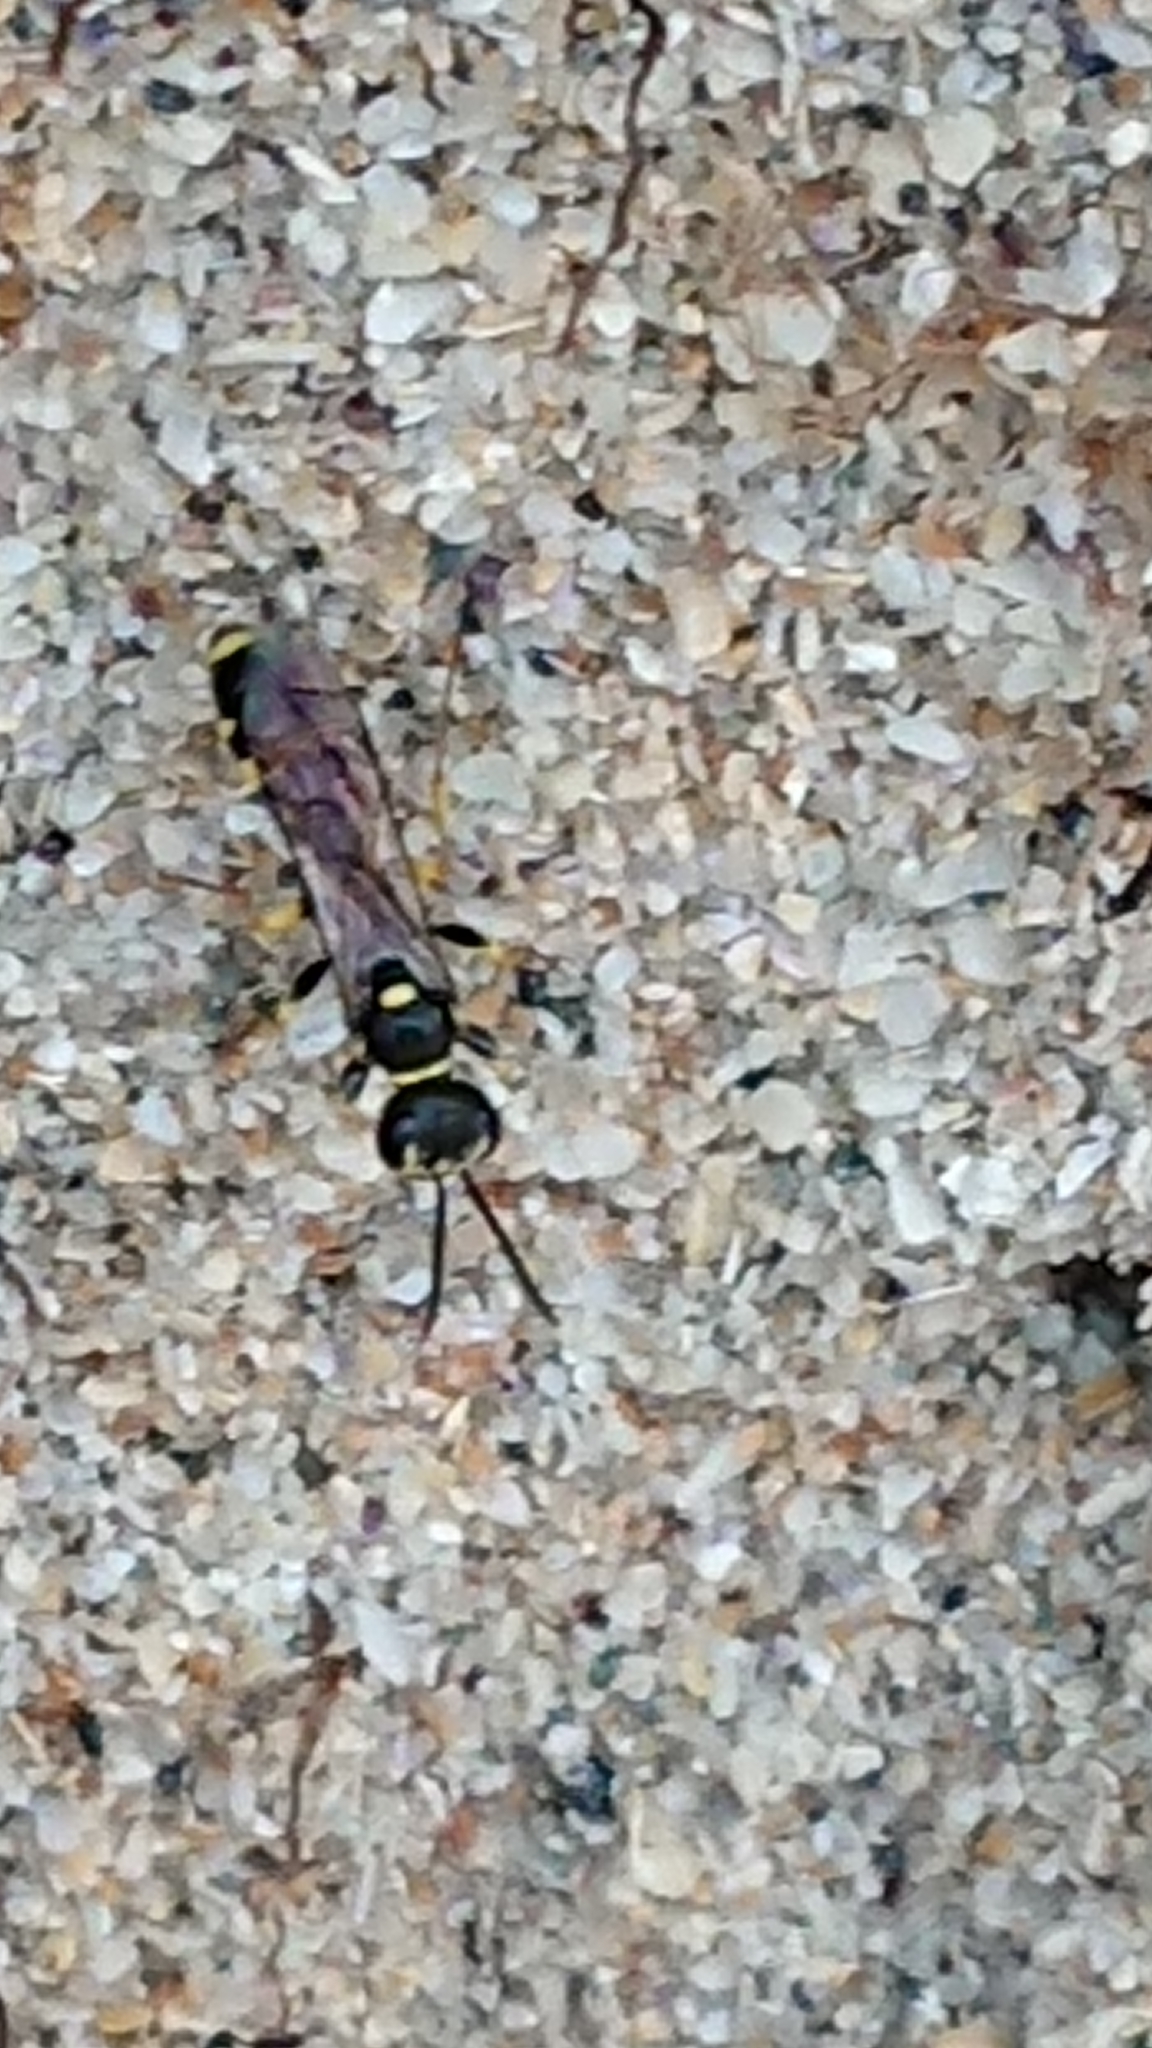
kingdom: Animalia
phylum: Arthropoda
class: Insecta
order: Hymenoptera
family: Crabronidae
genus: Mellinus
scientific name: Mellinus arvensis
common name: Field digger wasp
